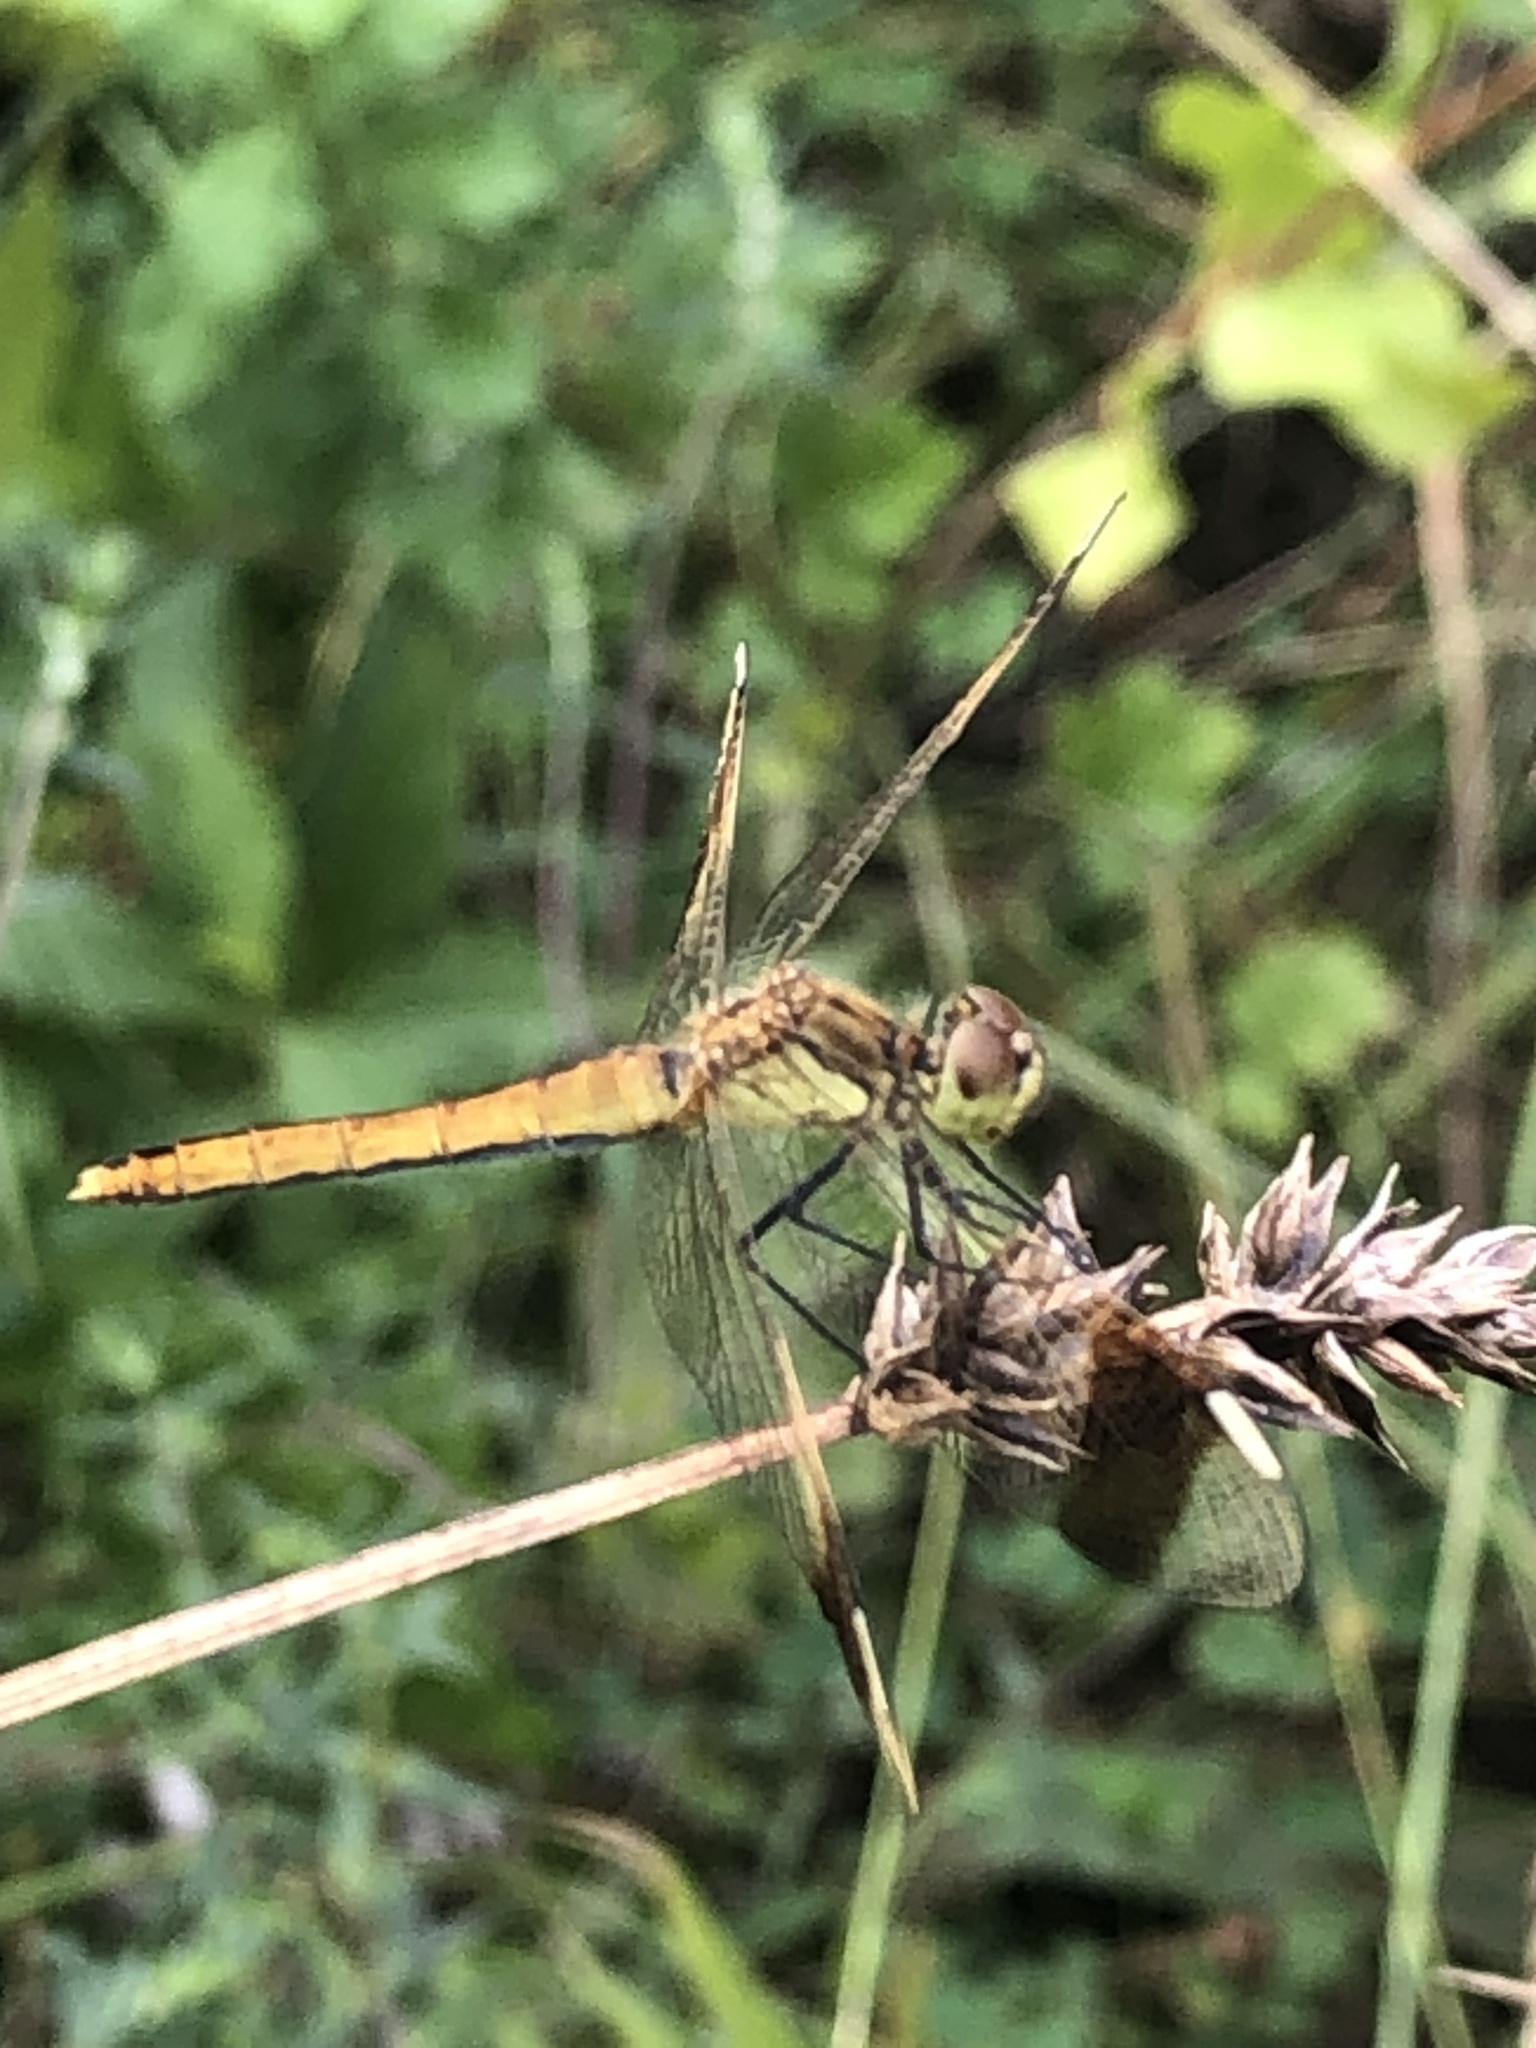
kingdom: Animalia
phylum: Arthropoda
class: Insecta
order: Odonata
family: Libellulidae
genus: Sympetrum
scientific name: Sympetrum pedemontanum
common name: Banded darter
